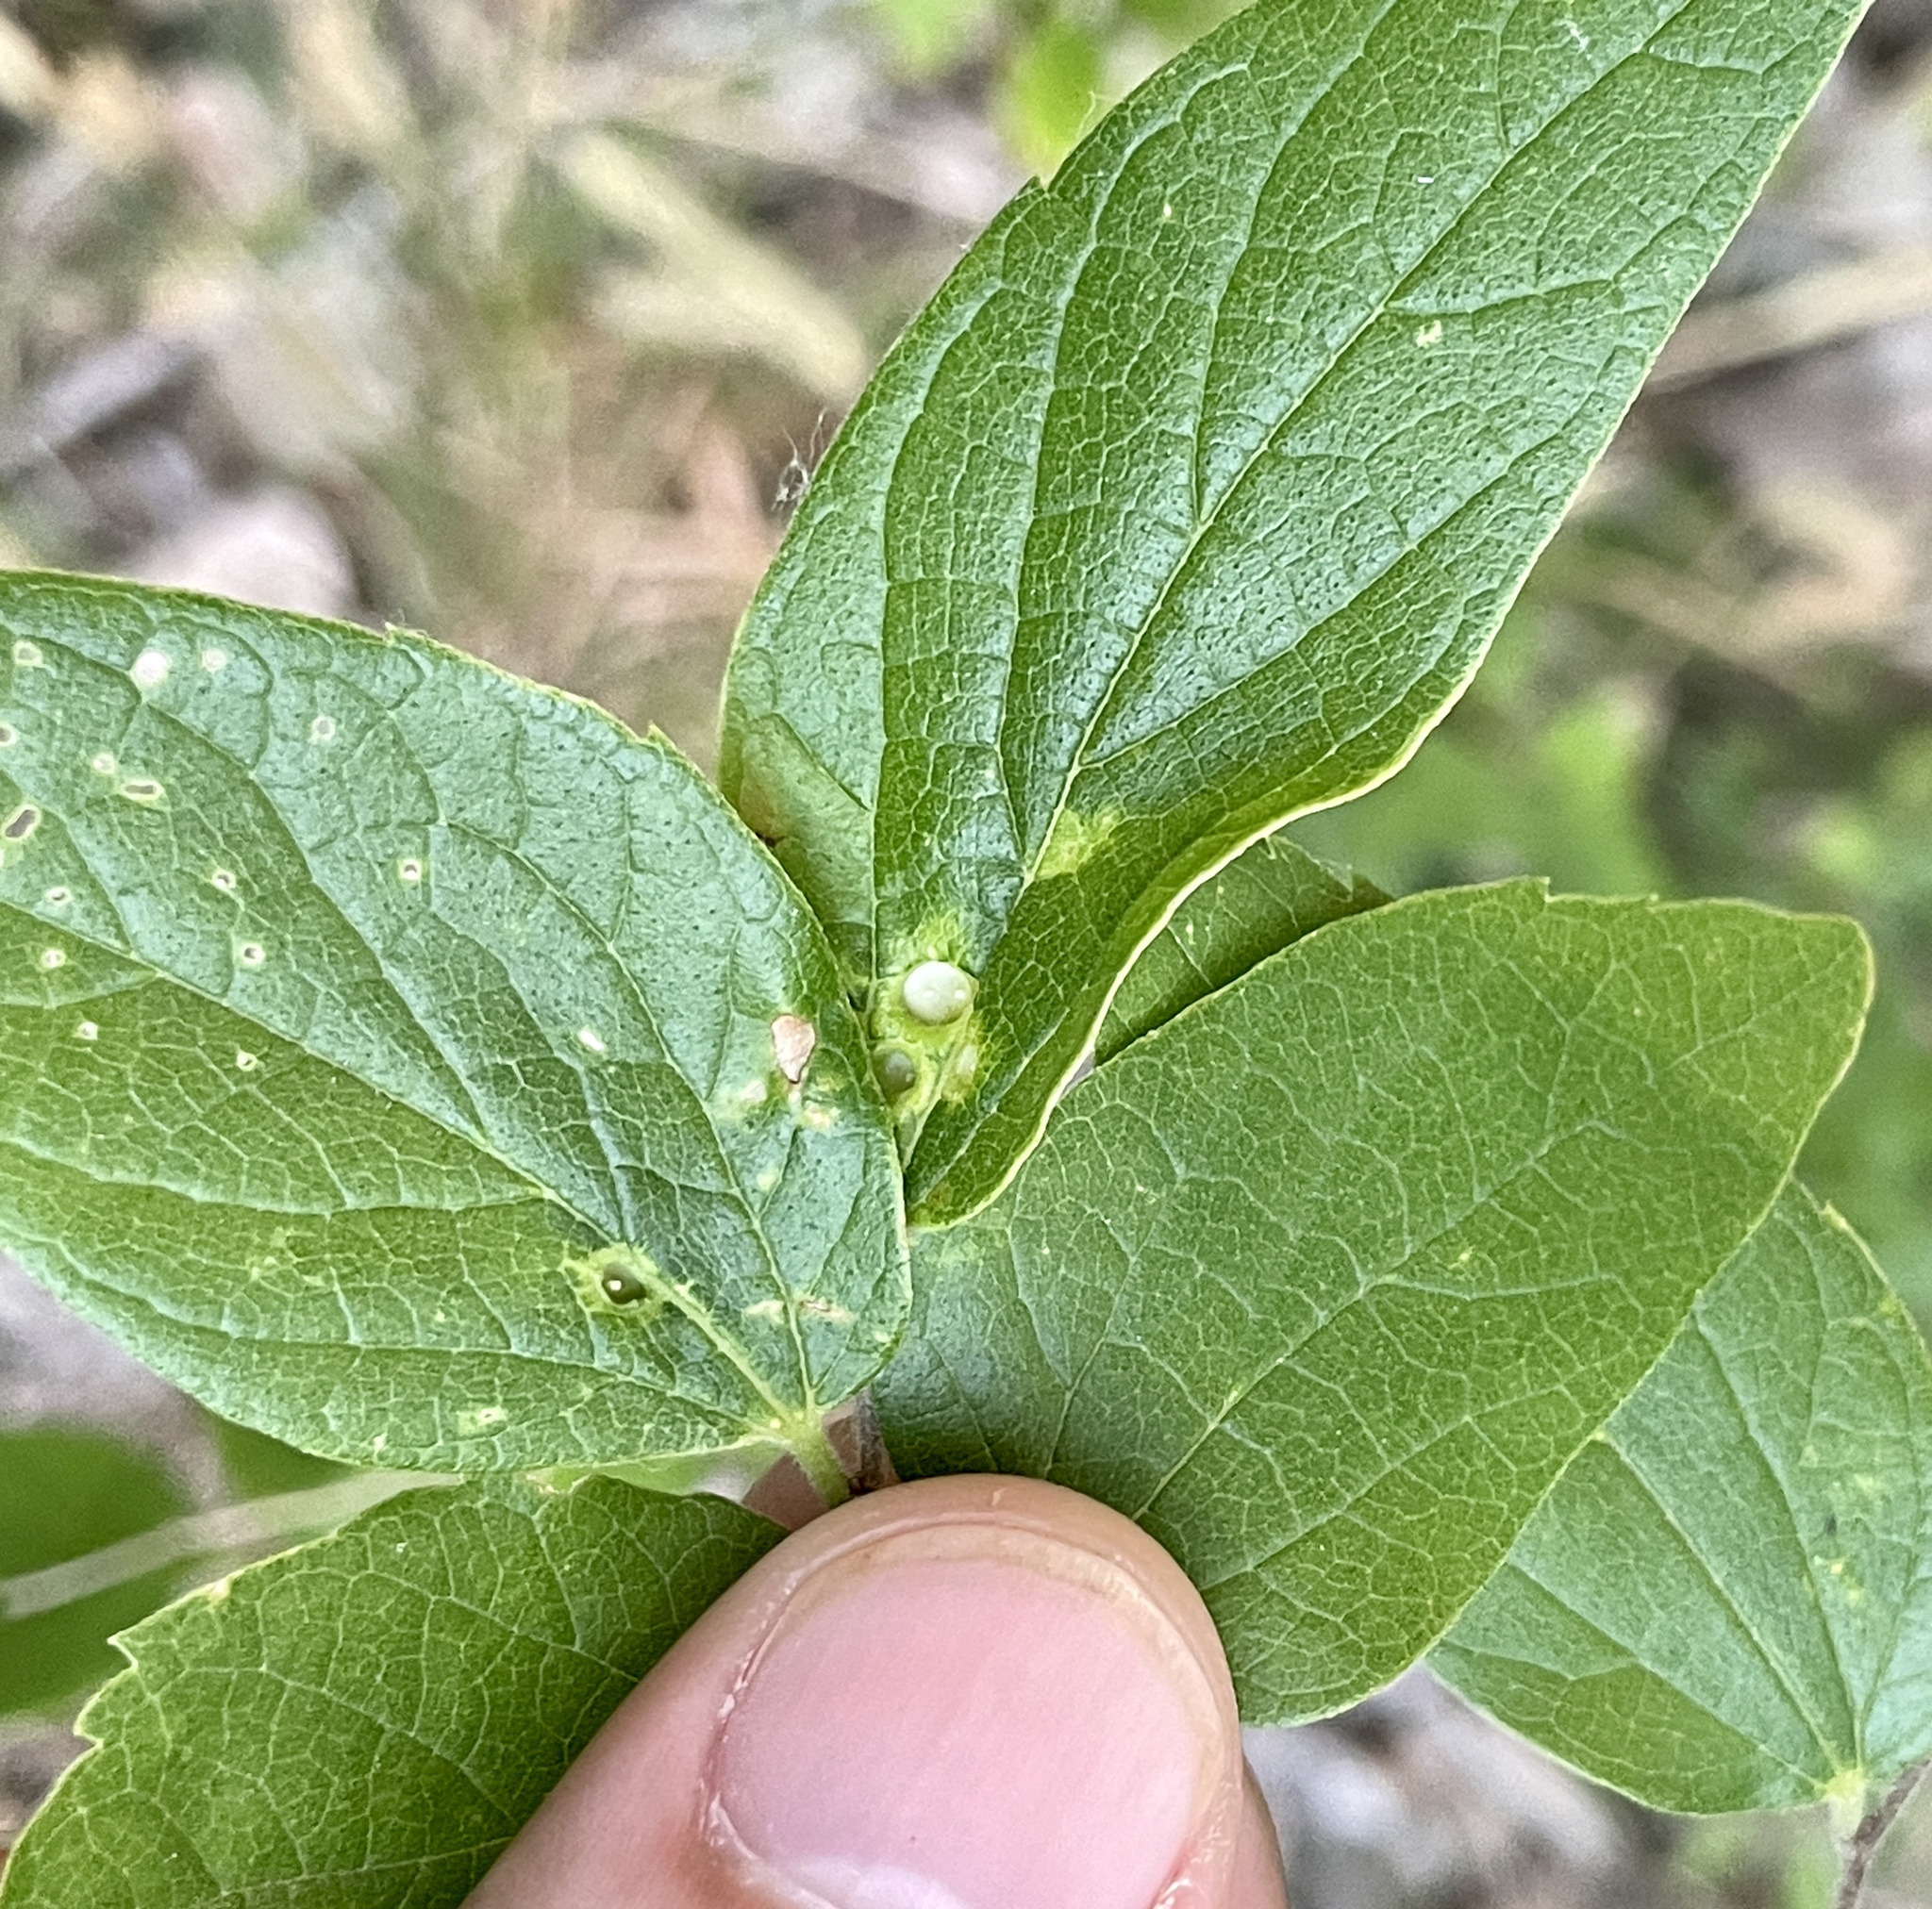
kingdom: Animalia
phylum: Arthropoda
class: Insecta
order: Hemiptera
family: Aphalaridae
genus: Pachypsylla
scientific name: Pachypsylla celtidismamma
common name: Hackberry nipplegall psyllid
